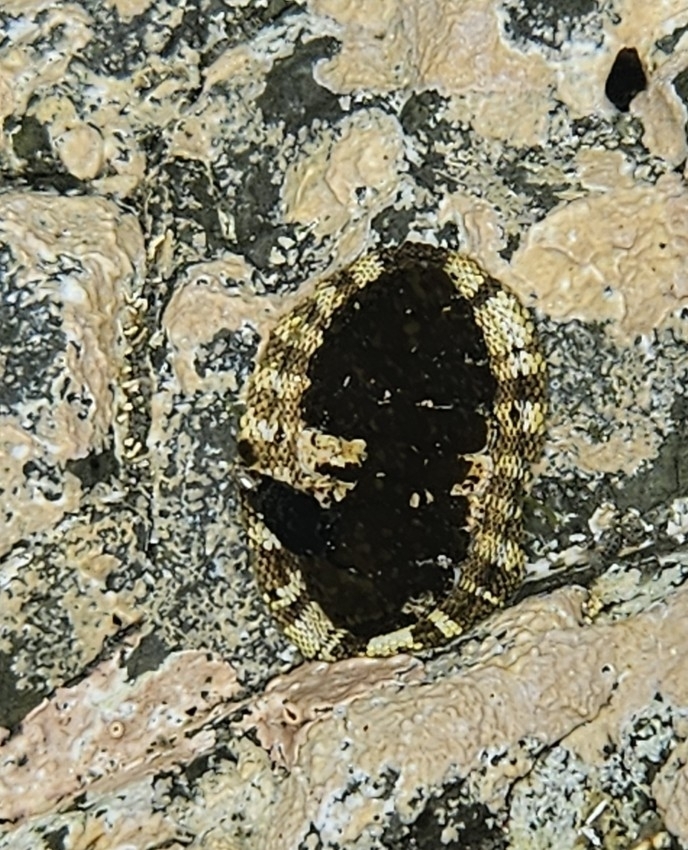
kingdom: Animalia
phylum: Mollusca
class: Polyplacophora
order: Chitonida
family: Chitonidae
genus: Sypharochiton
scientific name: Sypharochiton pelliserpentis
